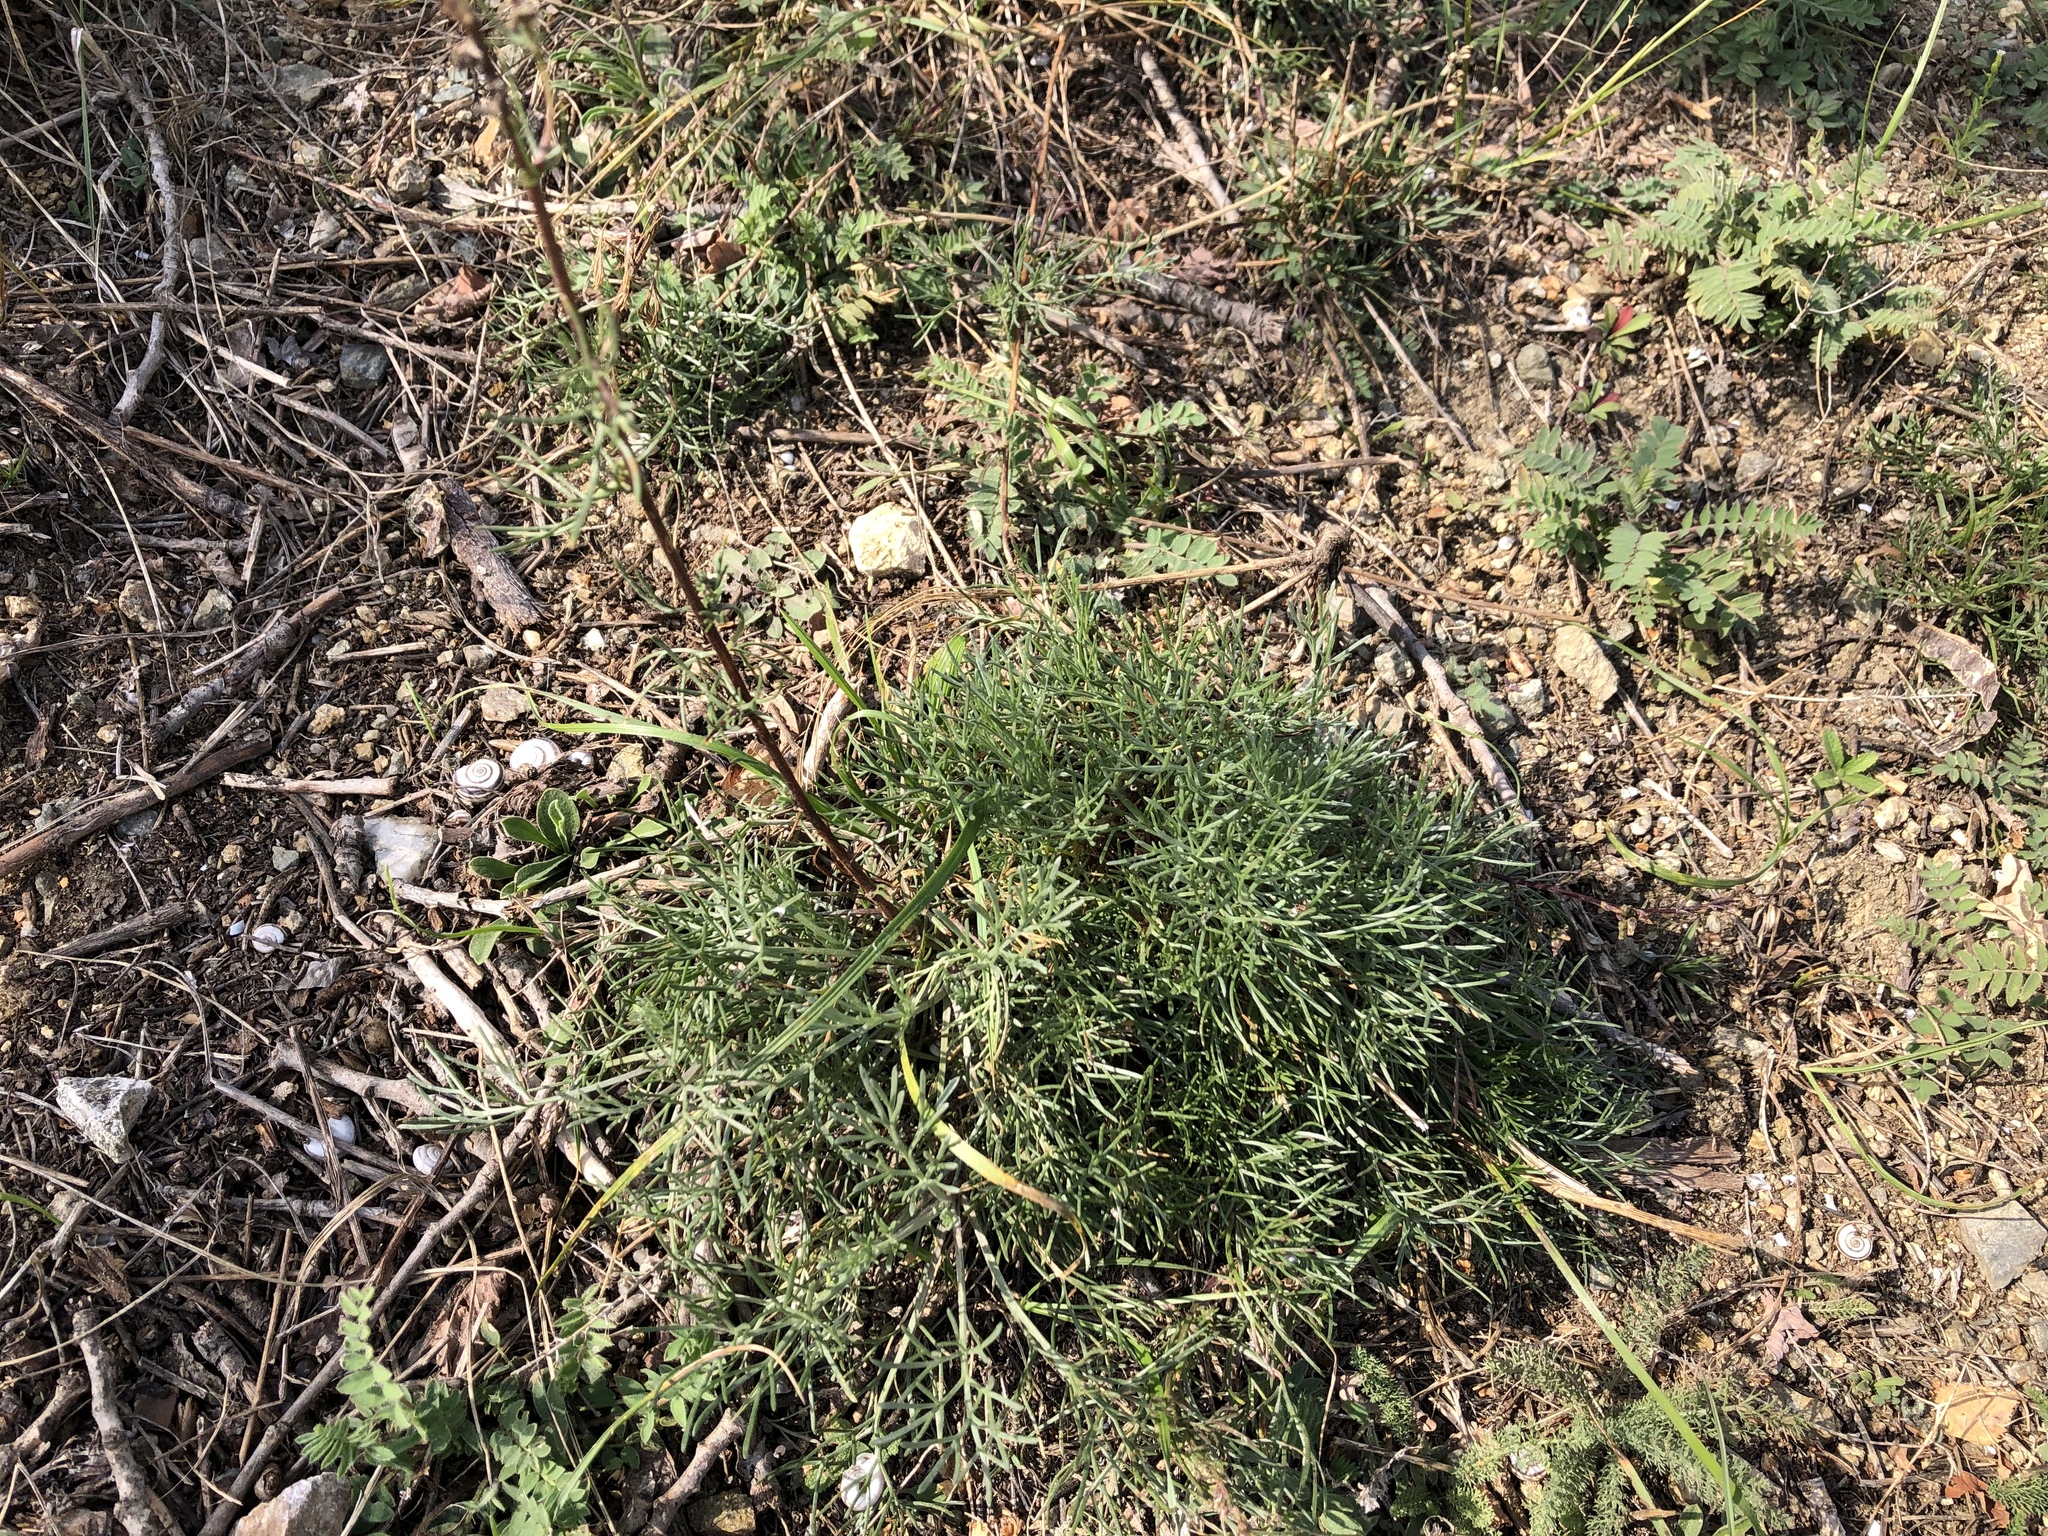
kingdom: Plantae
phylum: Tracheophyta
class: Magnoliopsida
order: Asterales
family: Asteraceae
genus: Artemisia
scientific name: Artemisia campestris
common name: Field wormwood
